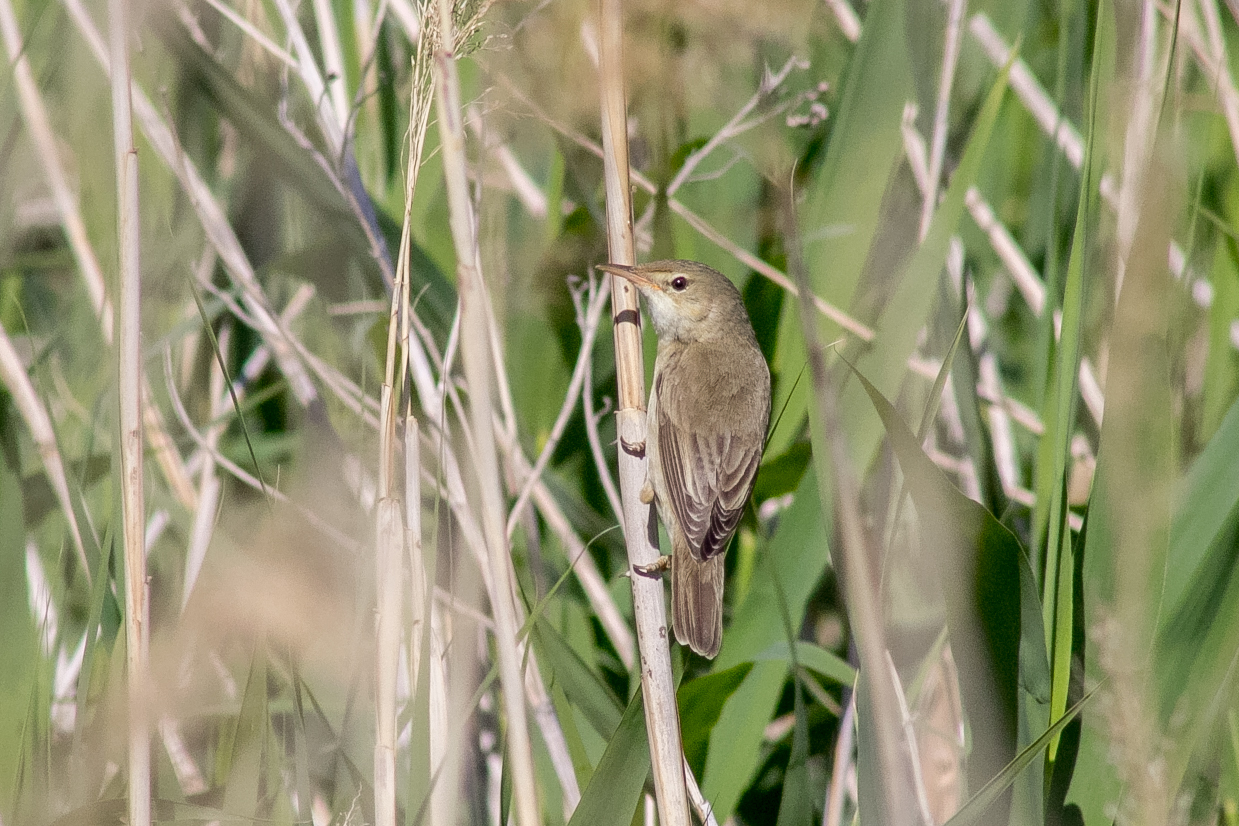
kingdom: Animalia
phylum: Chordata
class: Aves
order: Passeriformes
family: Acrocephalidae
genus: Acrocephalus
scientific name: Acrocephalus dumetorum
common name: Blyth's reed warbler
